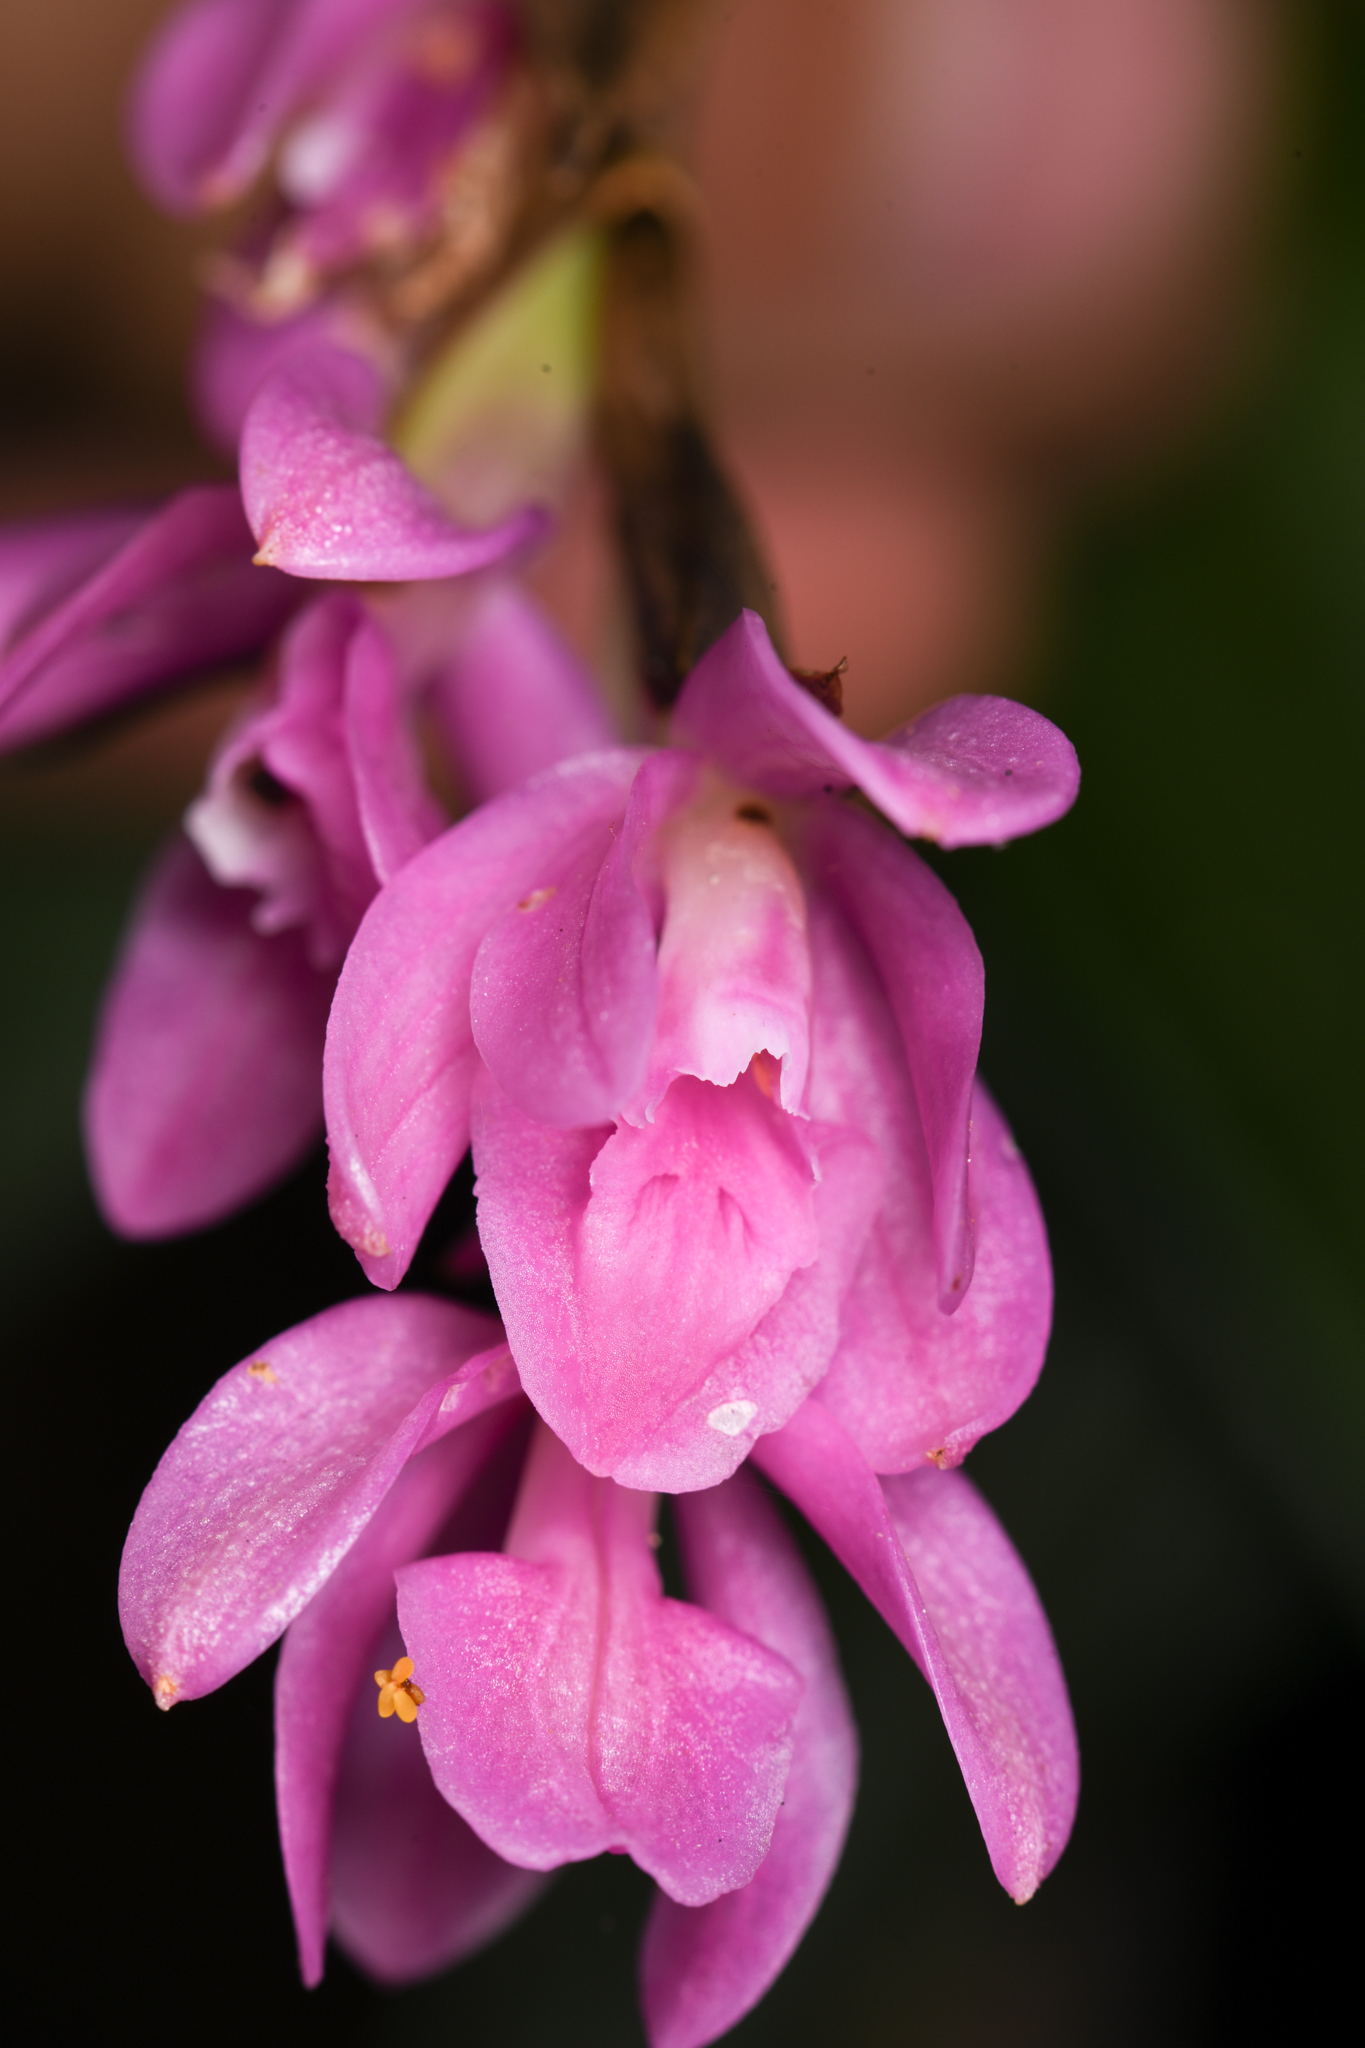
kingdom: Plantae
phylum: Tracheophyta
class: Liliopsida
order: Asparagales
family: Orchidaceae
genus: Epidendrum
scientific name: Epidendrum paucifolium
